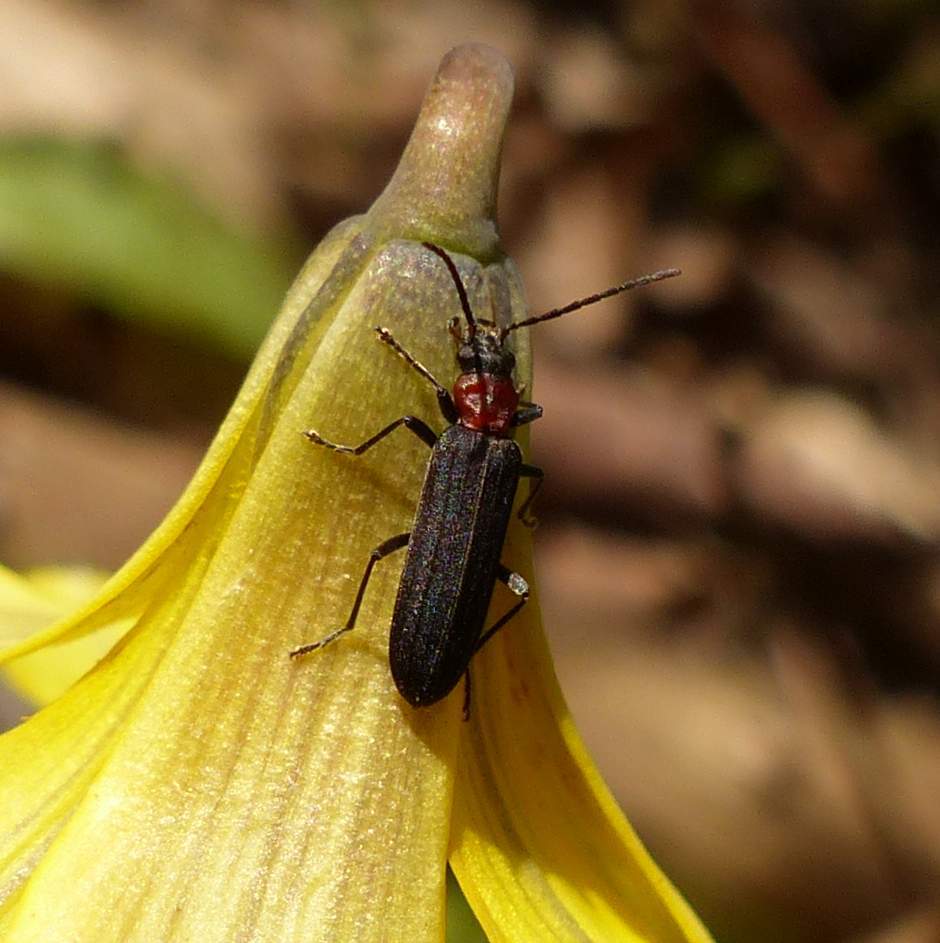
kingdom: Animalia
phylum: Arthropoda
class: Insecta
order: Coleoptera
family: Oedemeridae
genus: Ischnomera
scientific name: Ischnomera
